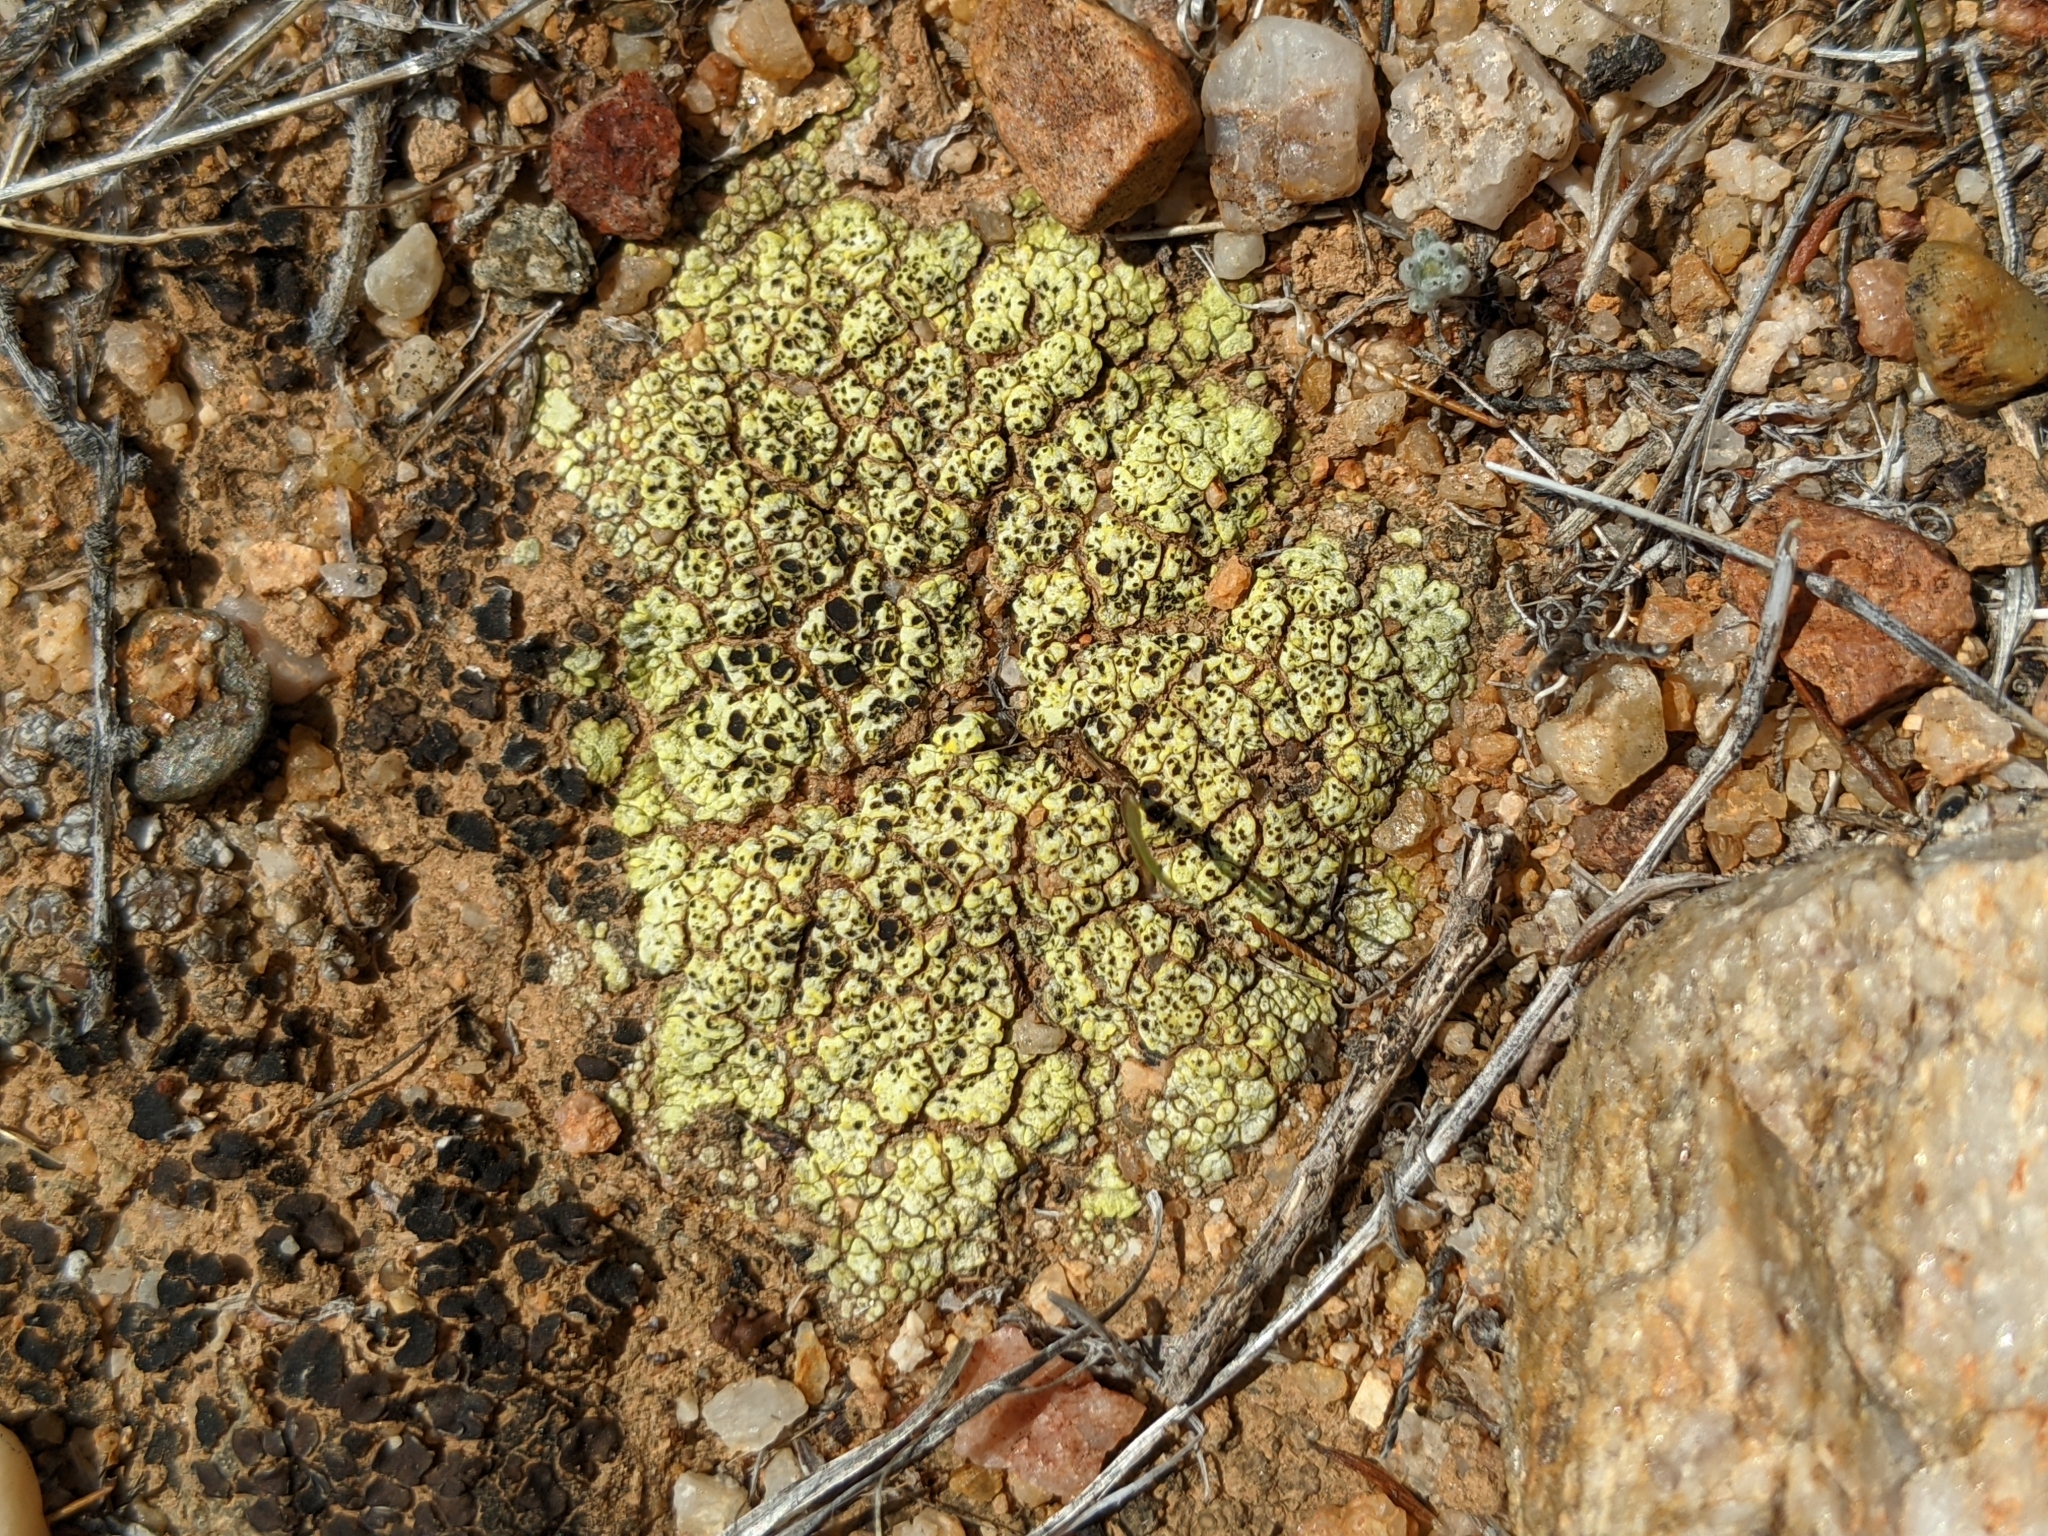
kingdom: Fungi
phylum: Ascomycota
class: Lecanoromycetes
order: Acarosporales
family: Acarosporaceae
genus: Acarospora
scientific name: Acarospora schleicheri
